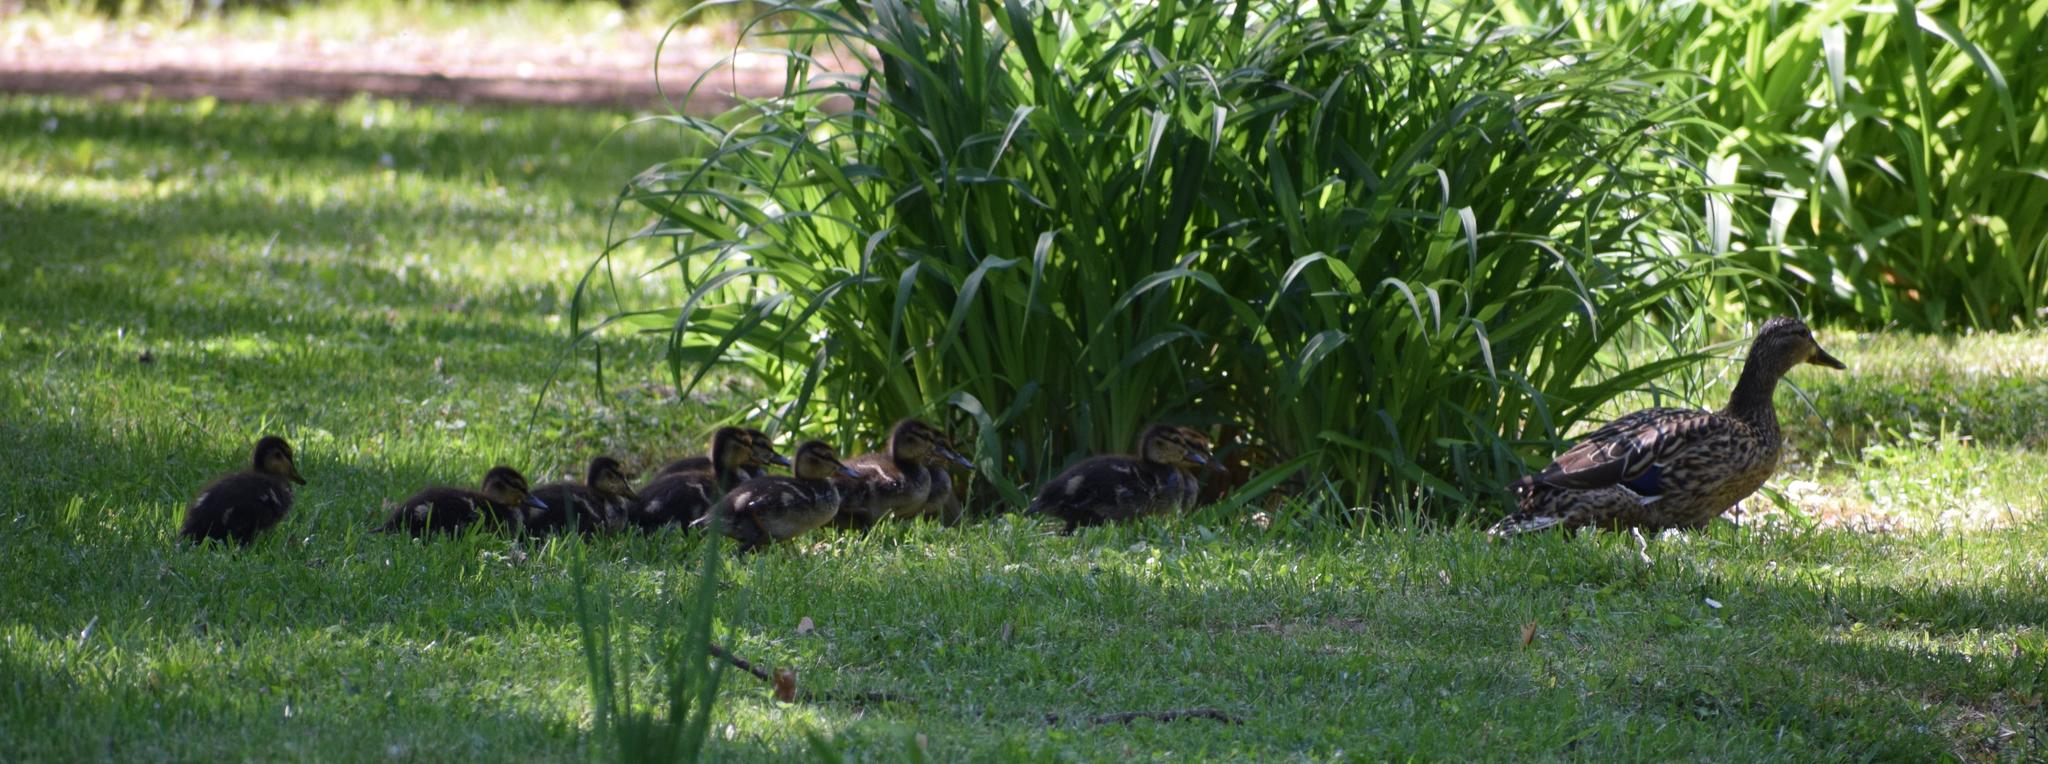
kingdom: Animalia
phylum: Chordata
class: Aves
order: Anseriformes
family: Anatidae
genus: Anas
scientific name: Anas platyrhynchos
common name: Mallard
